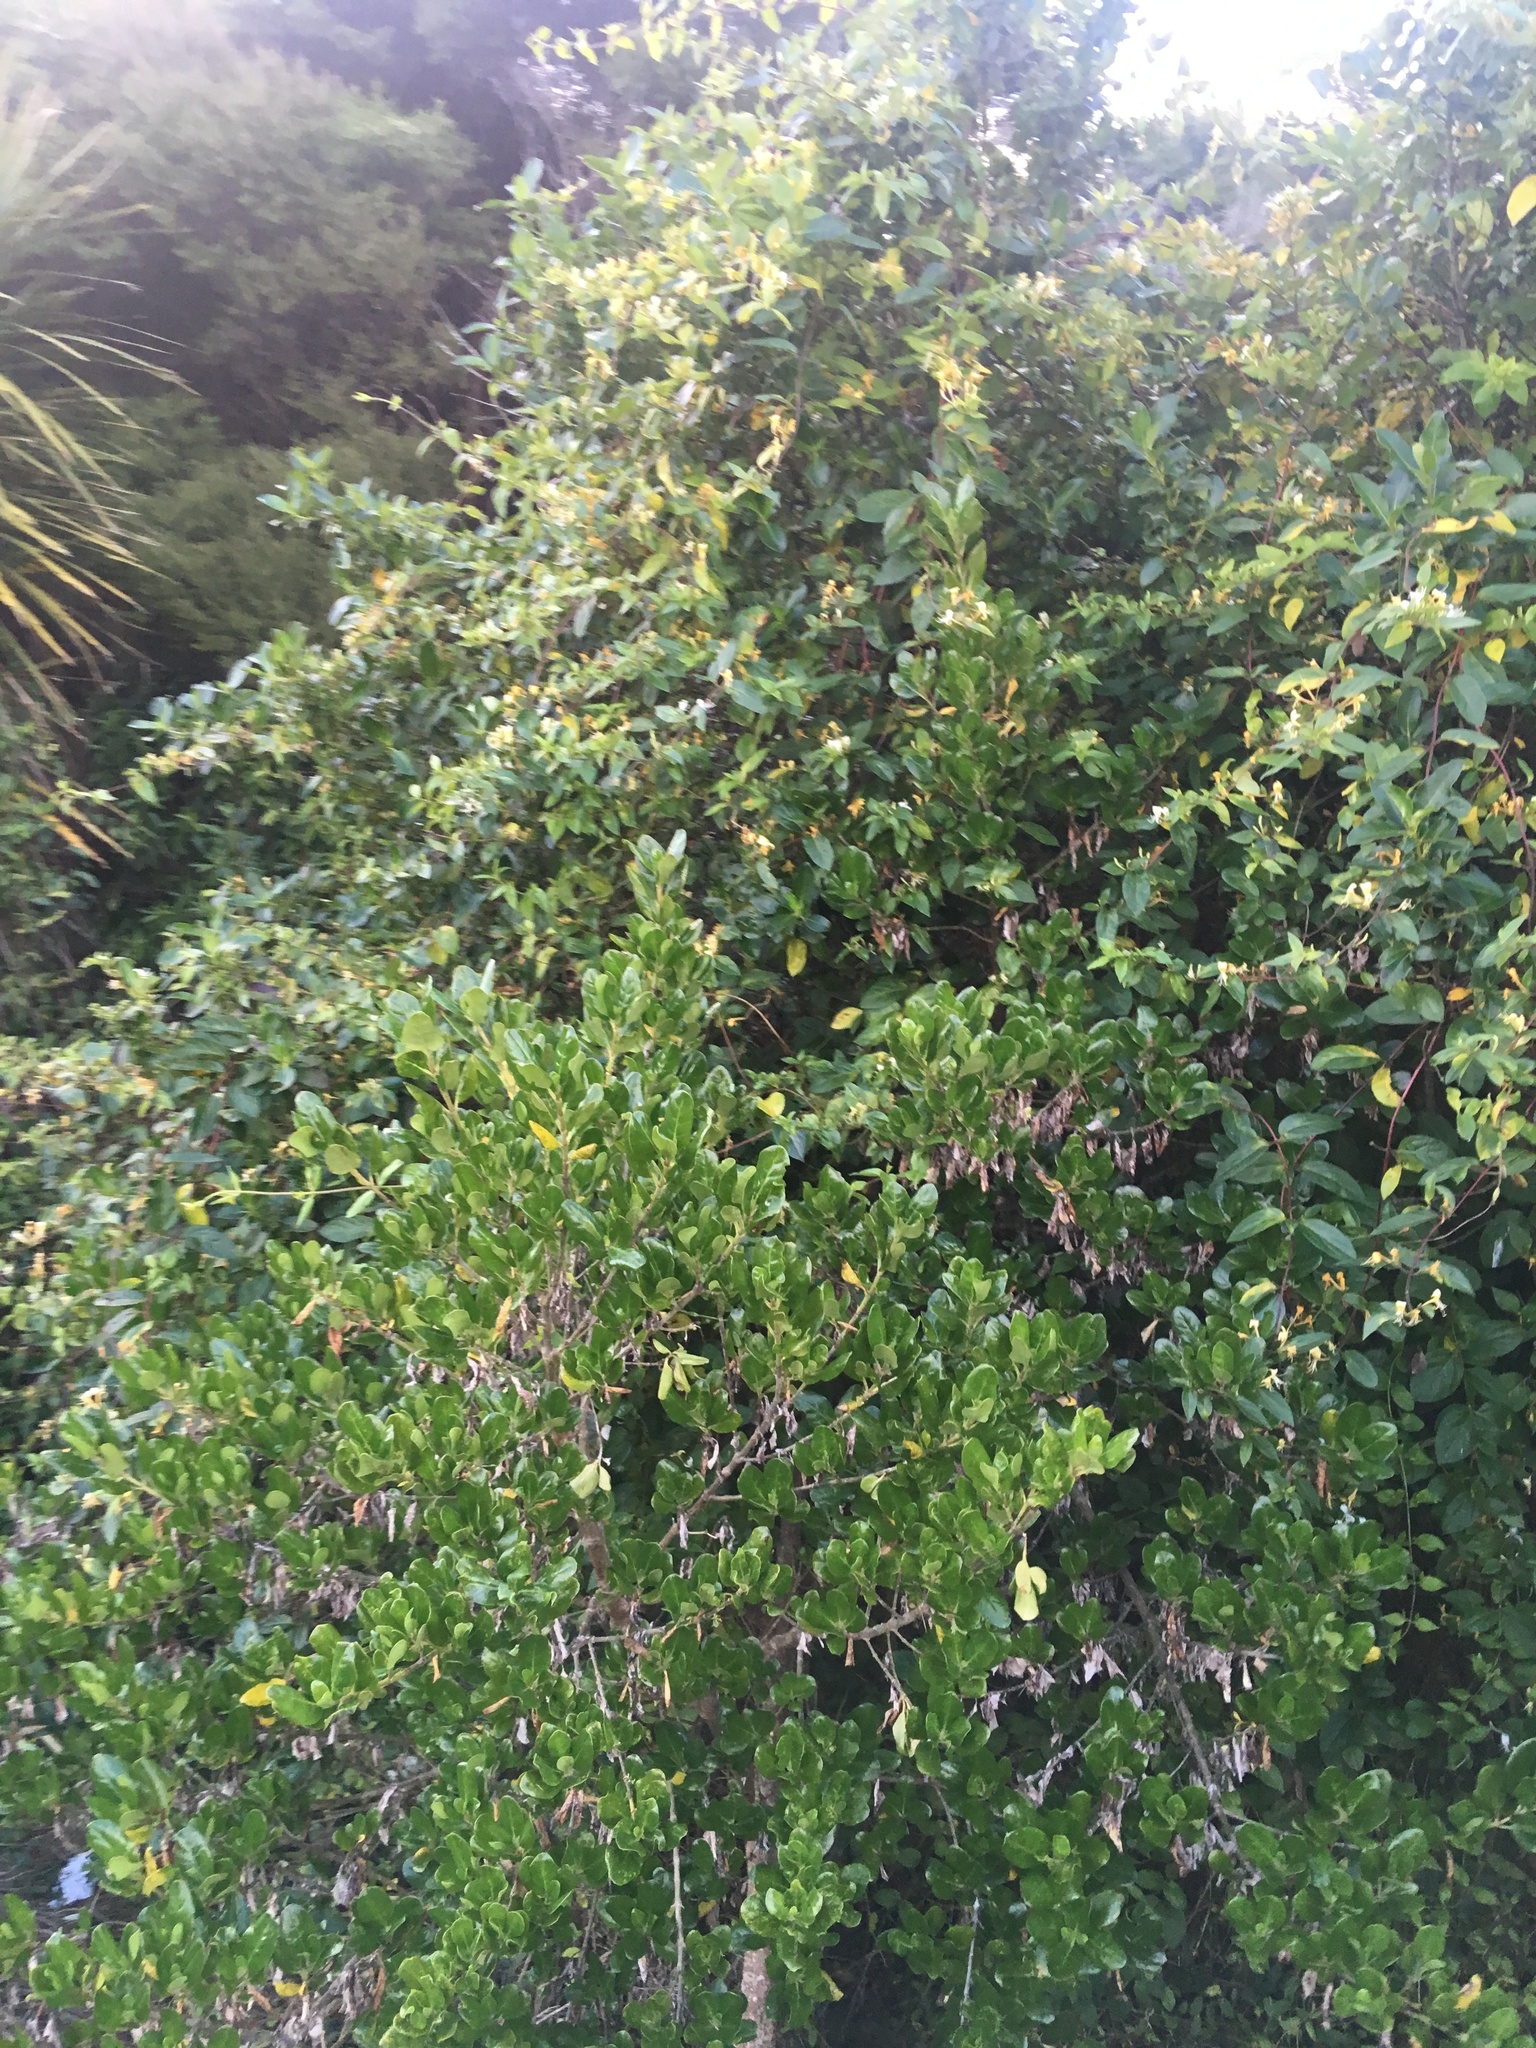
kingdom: Plantae
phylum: Tracheophyta
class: Magnoliopsida
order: Dipsacales
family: Caprifoliaceae
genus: Lonicera
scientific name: Lonicera japonica
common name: Japanese honeysuckle
